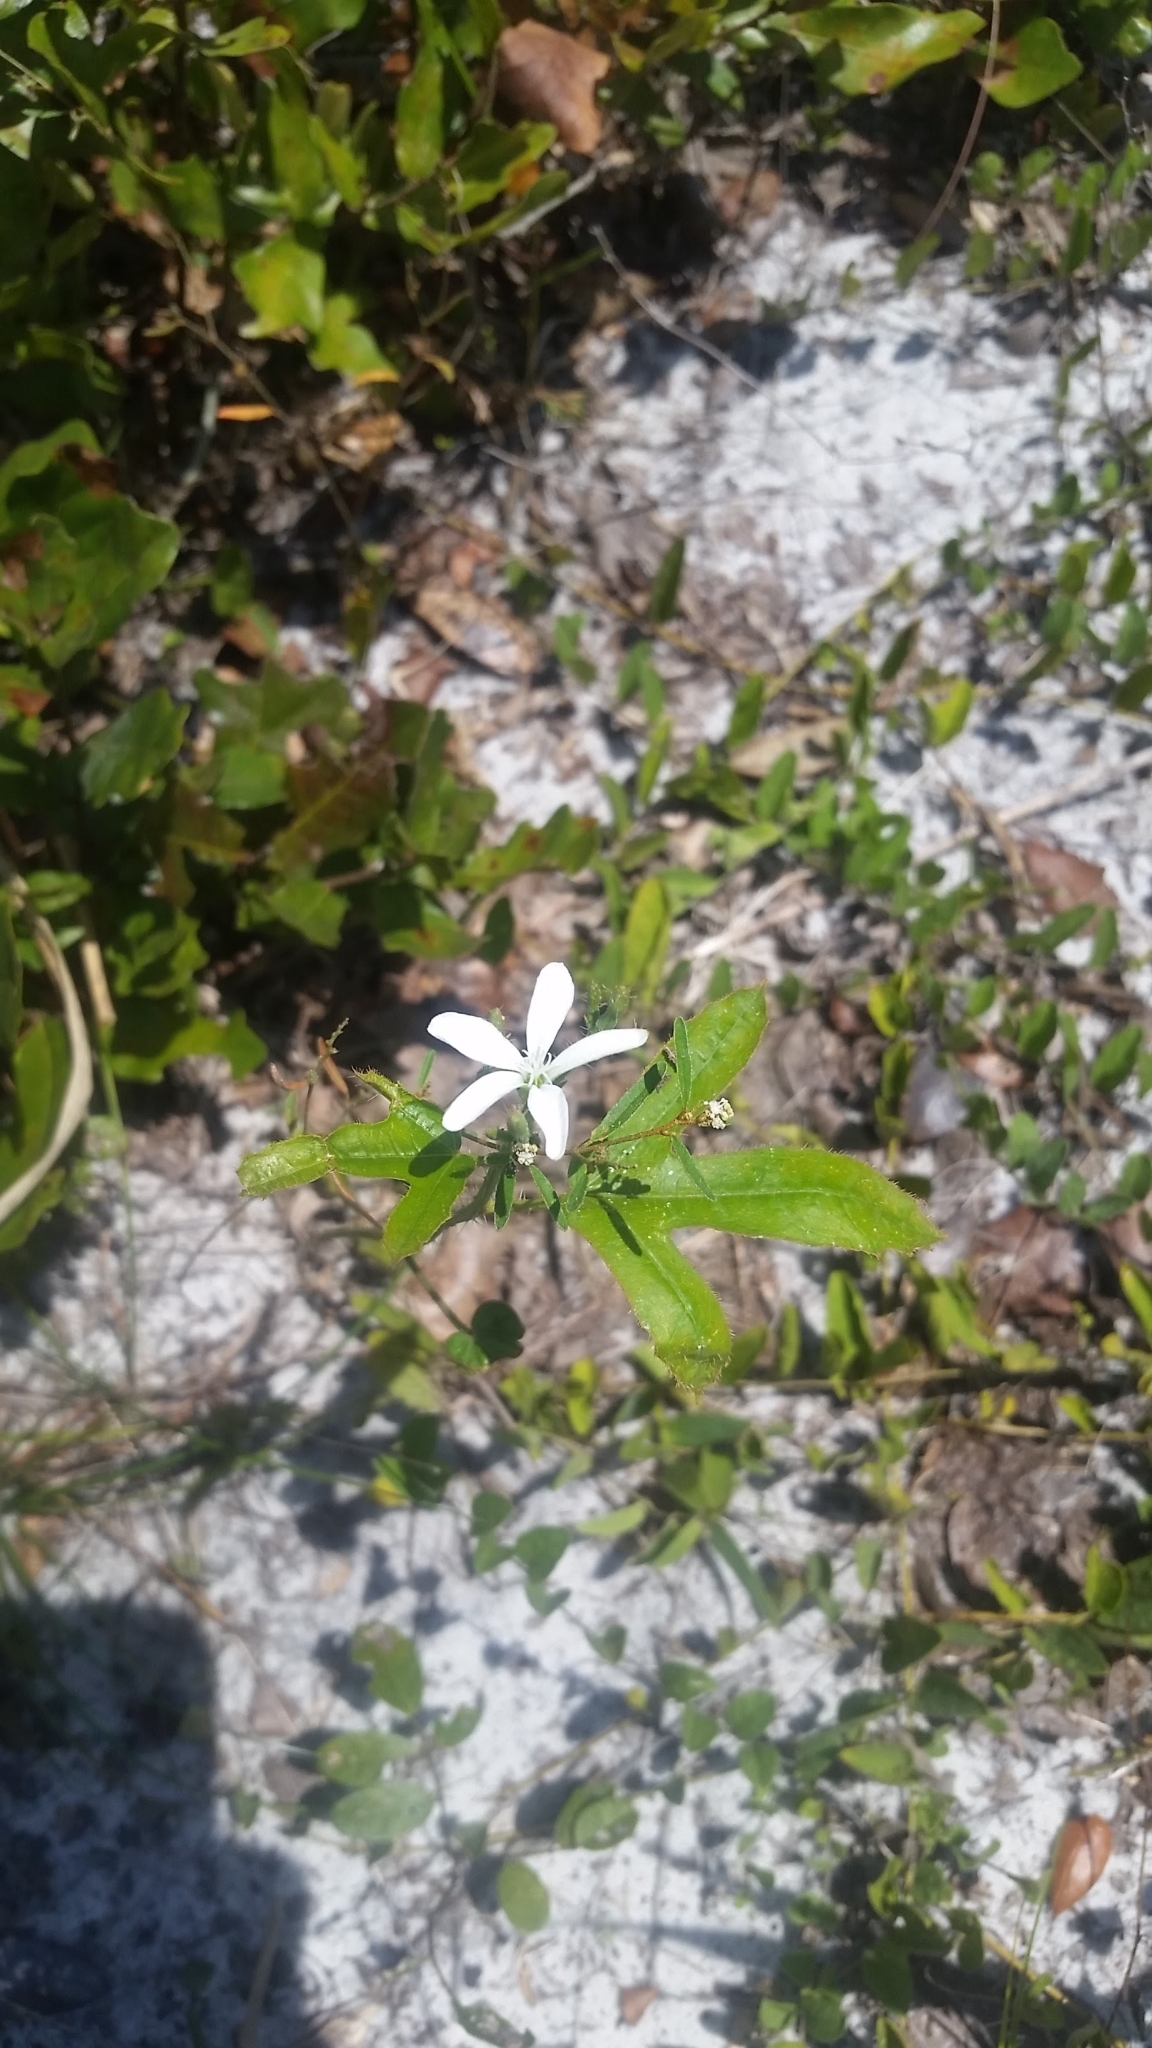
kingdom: Plantae
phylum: Tracheophyta
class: Magnoliopsida
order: Malpighiales
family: Euphorbiaceae
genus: Cnidoscolus
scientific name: Cnidoscolus stimulosus
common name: Bull-nettle
